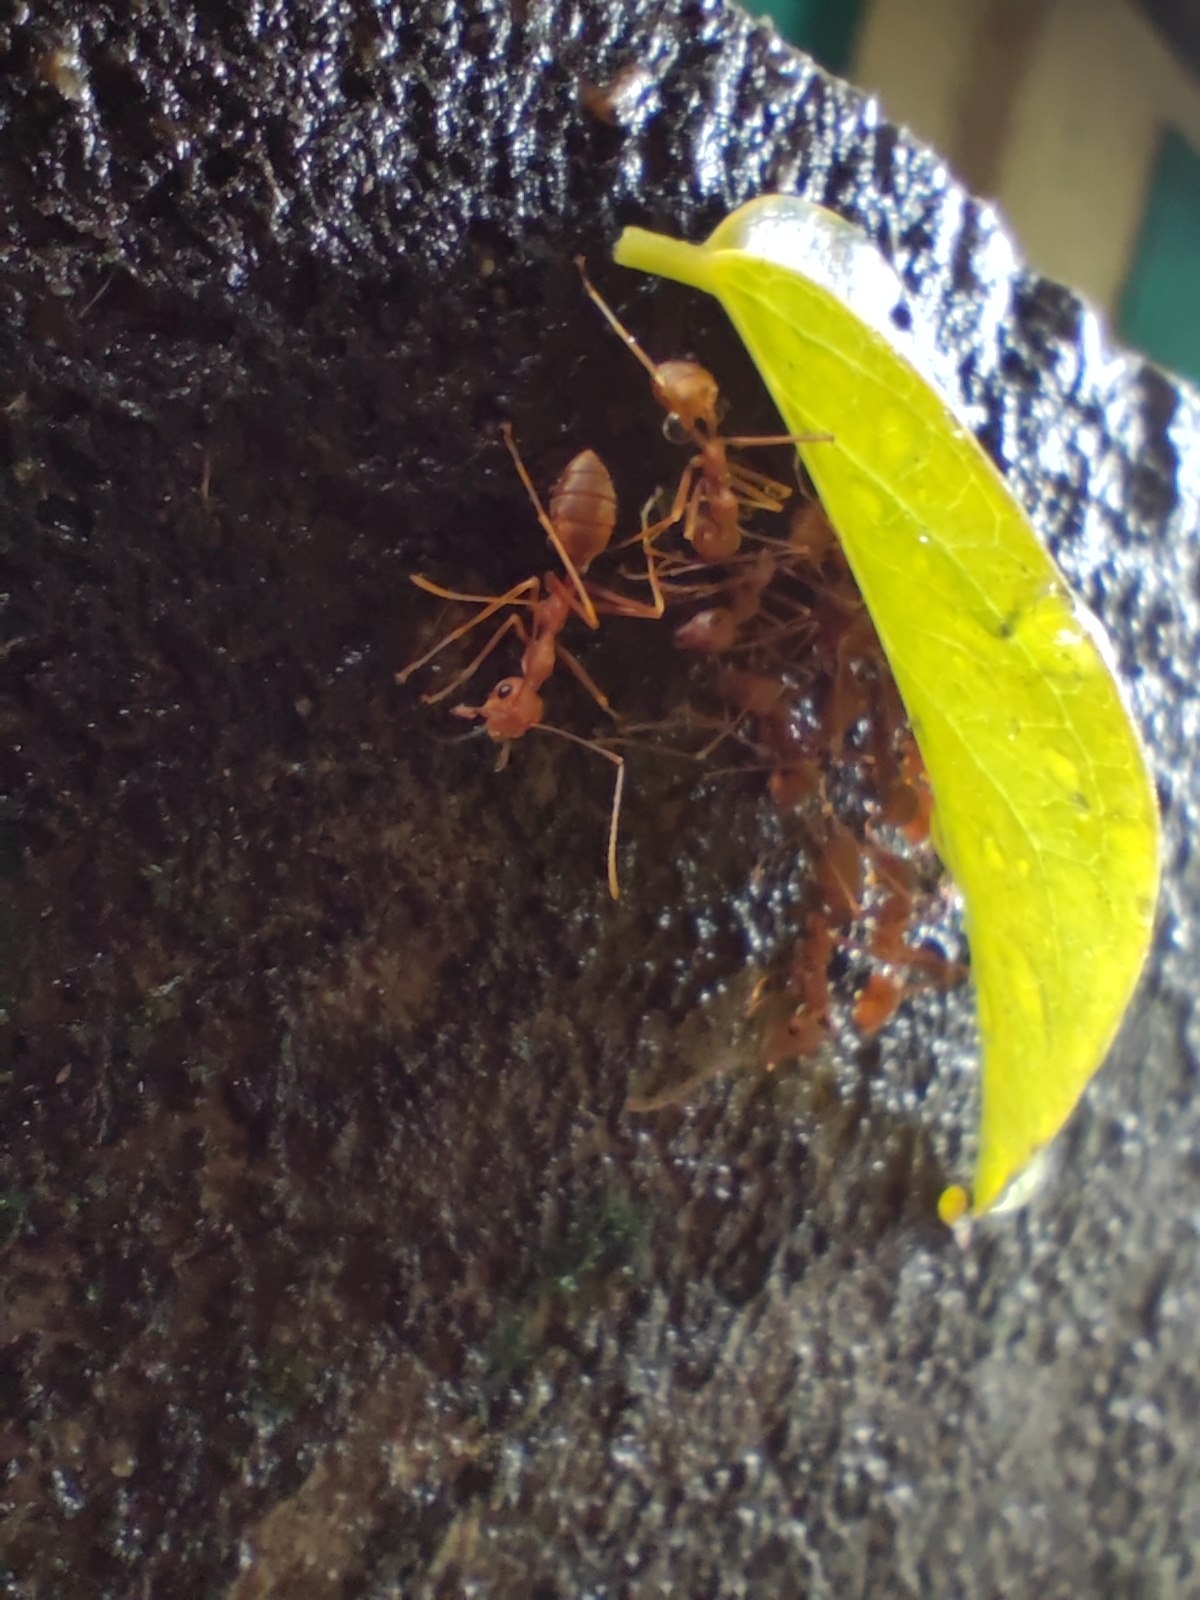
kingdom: Animalia
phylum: Arthropoda
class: Insecta
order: Hymenoptera
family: Formicidae
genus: Oecophylla
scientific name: Oecophylla smaragdina
